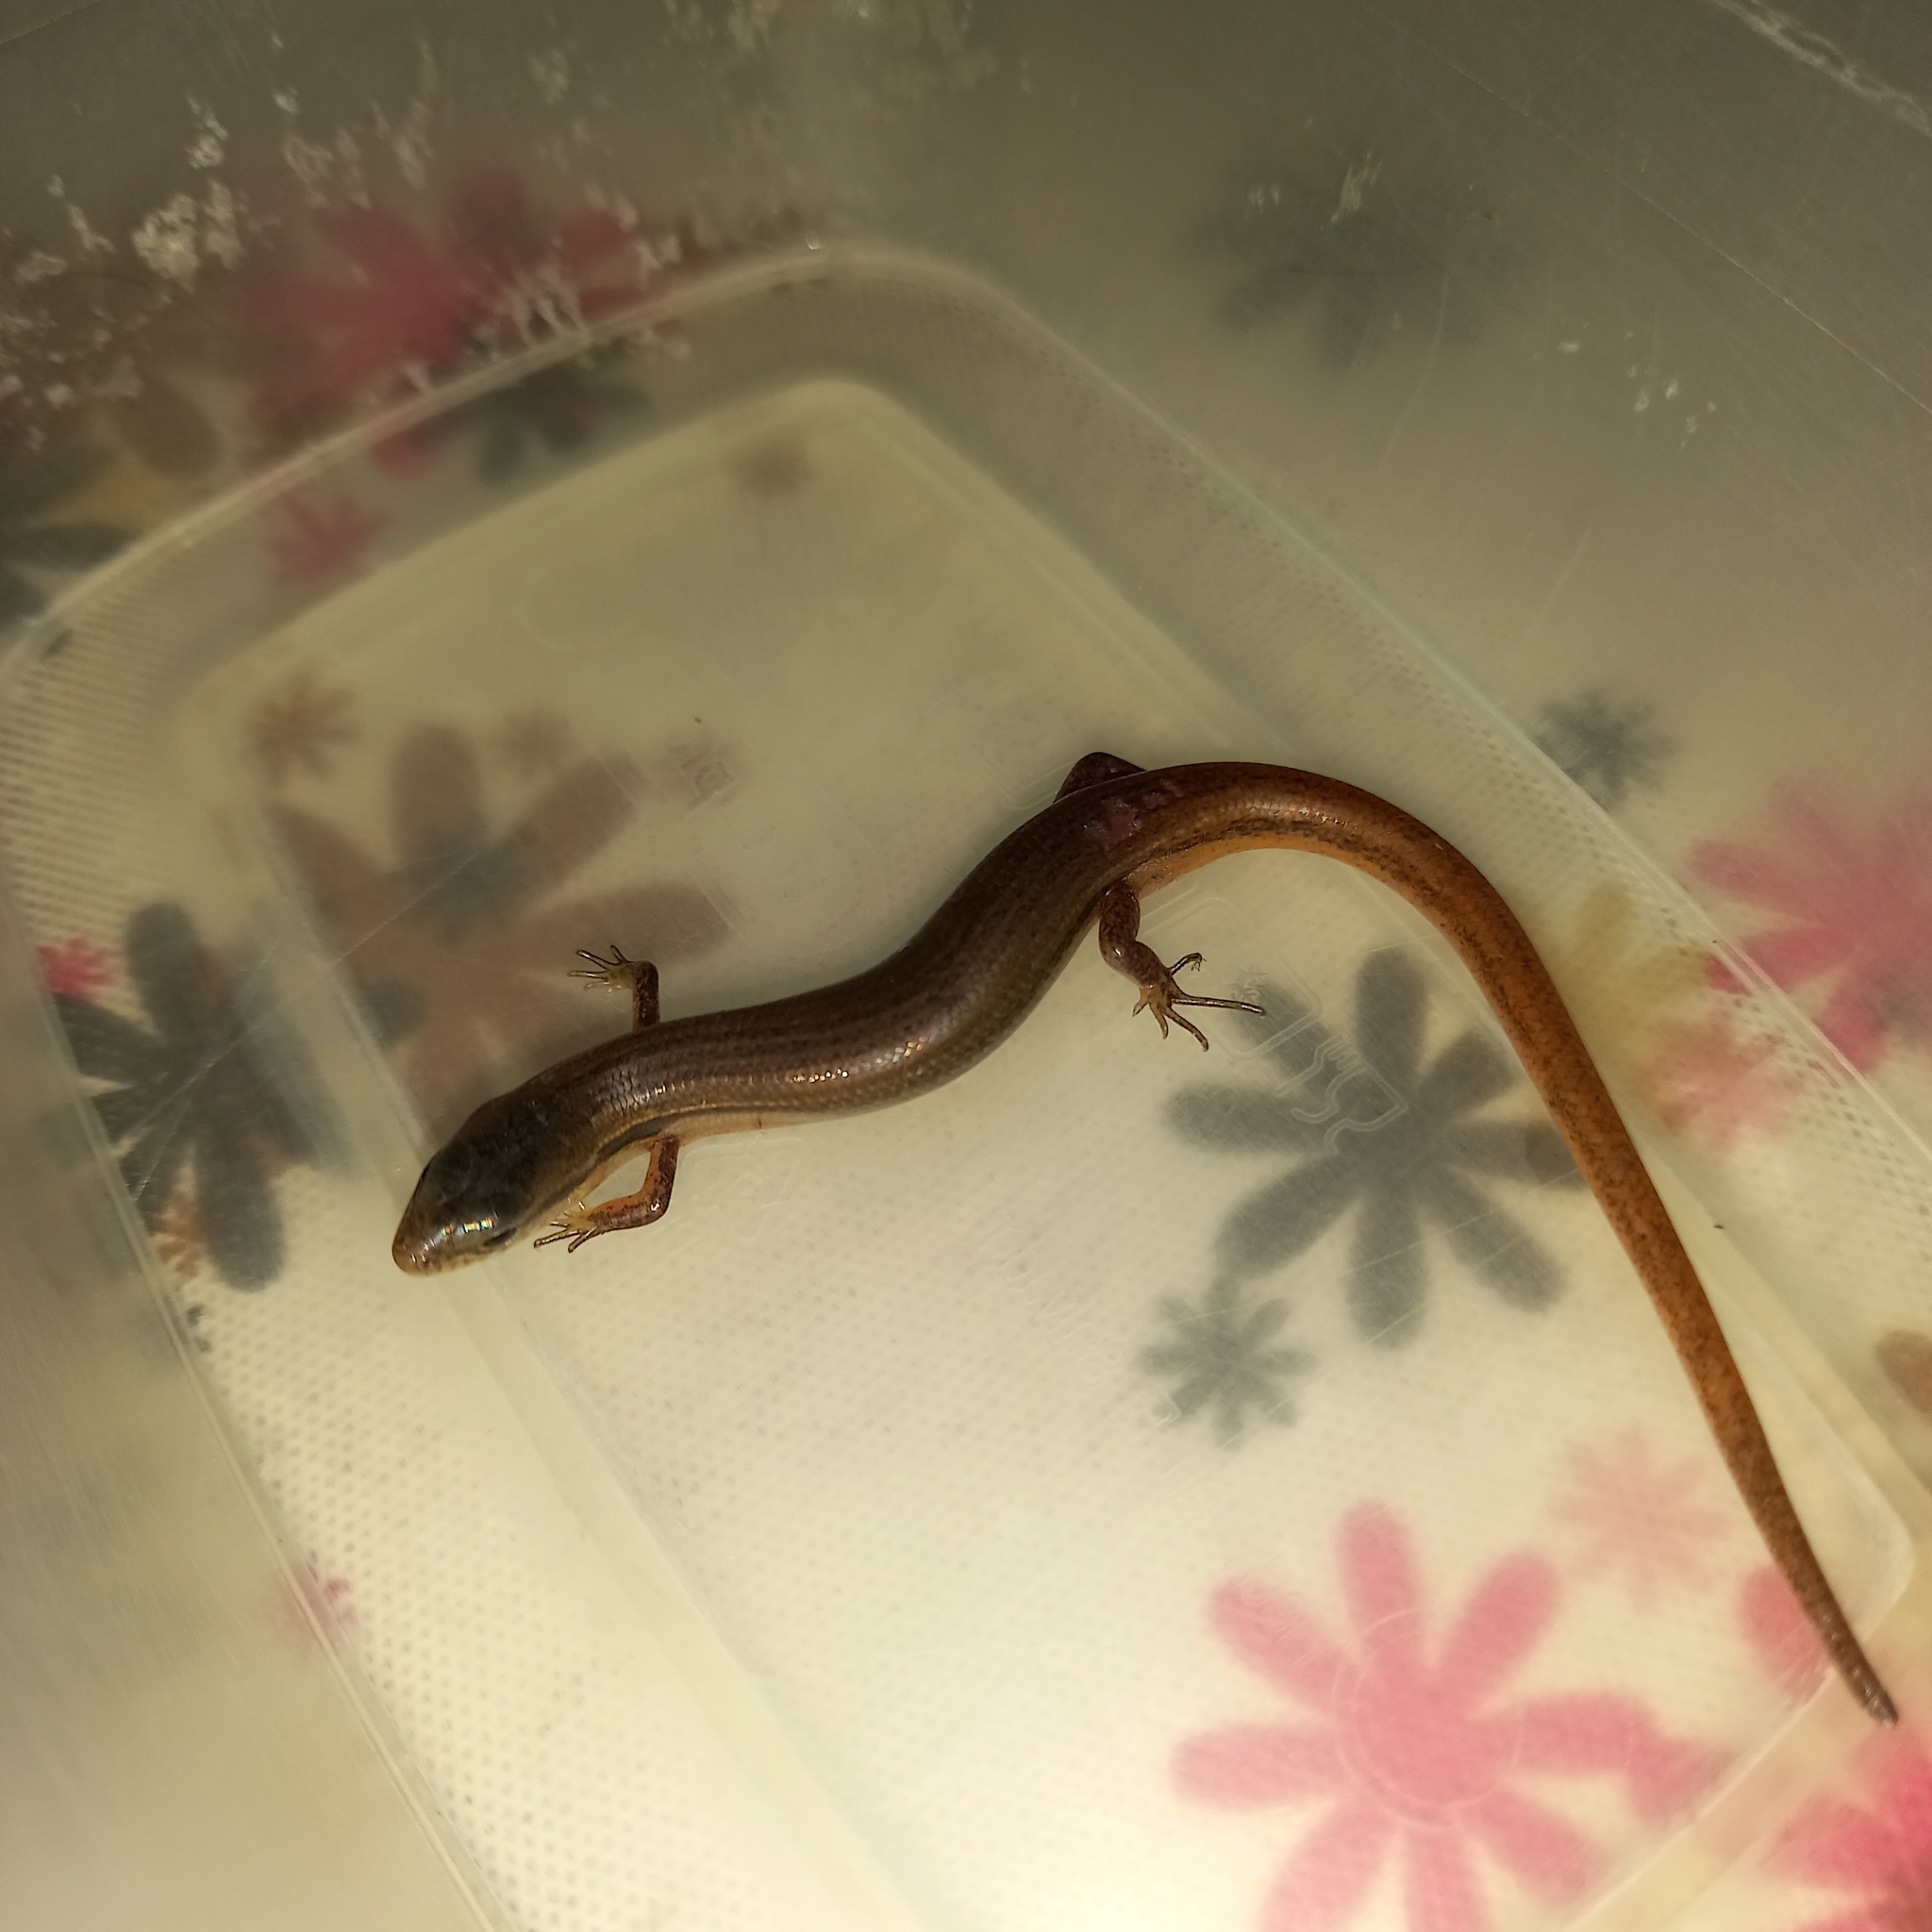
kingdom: Animalia
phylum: Chordata
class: Squamata
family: Scincidae
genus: Scincella
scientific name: Scincella assata
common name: Ground skink
